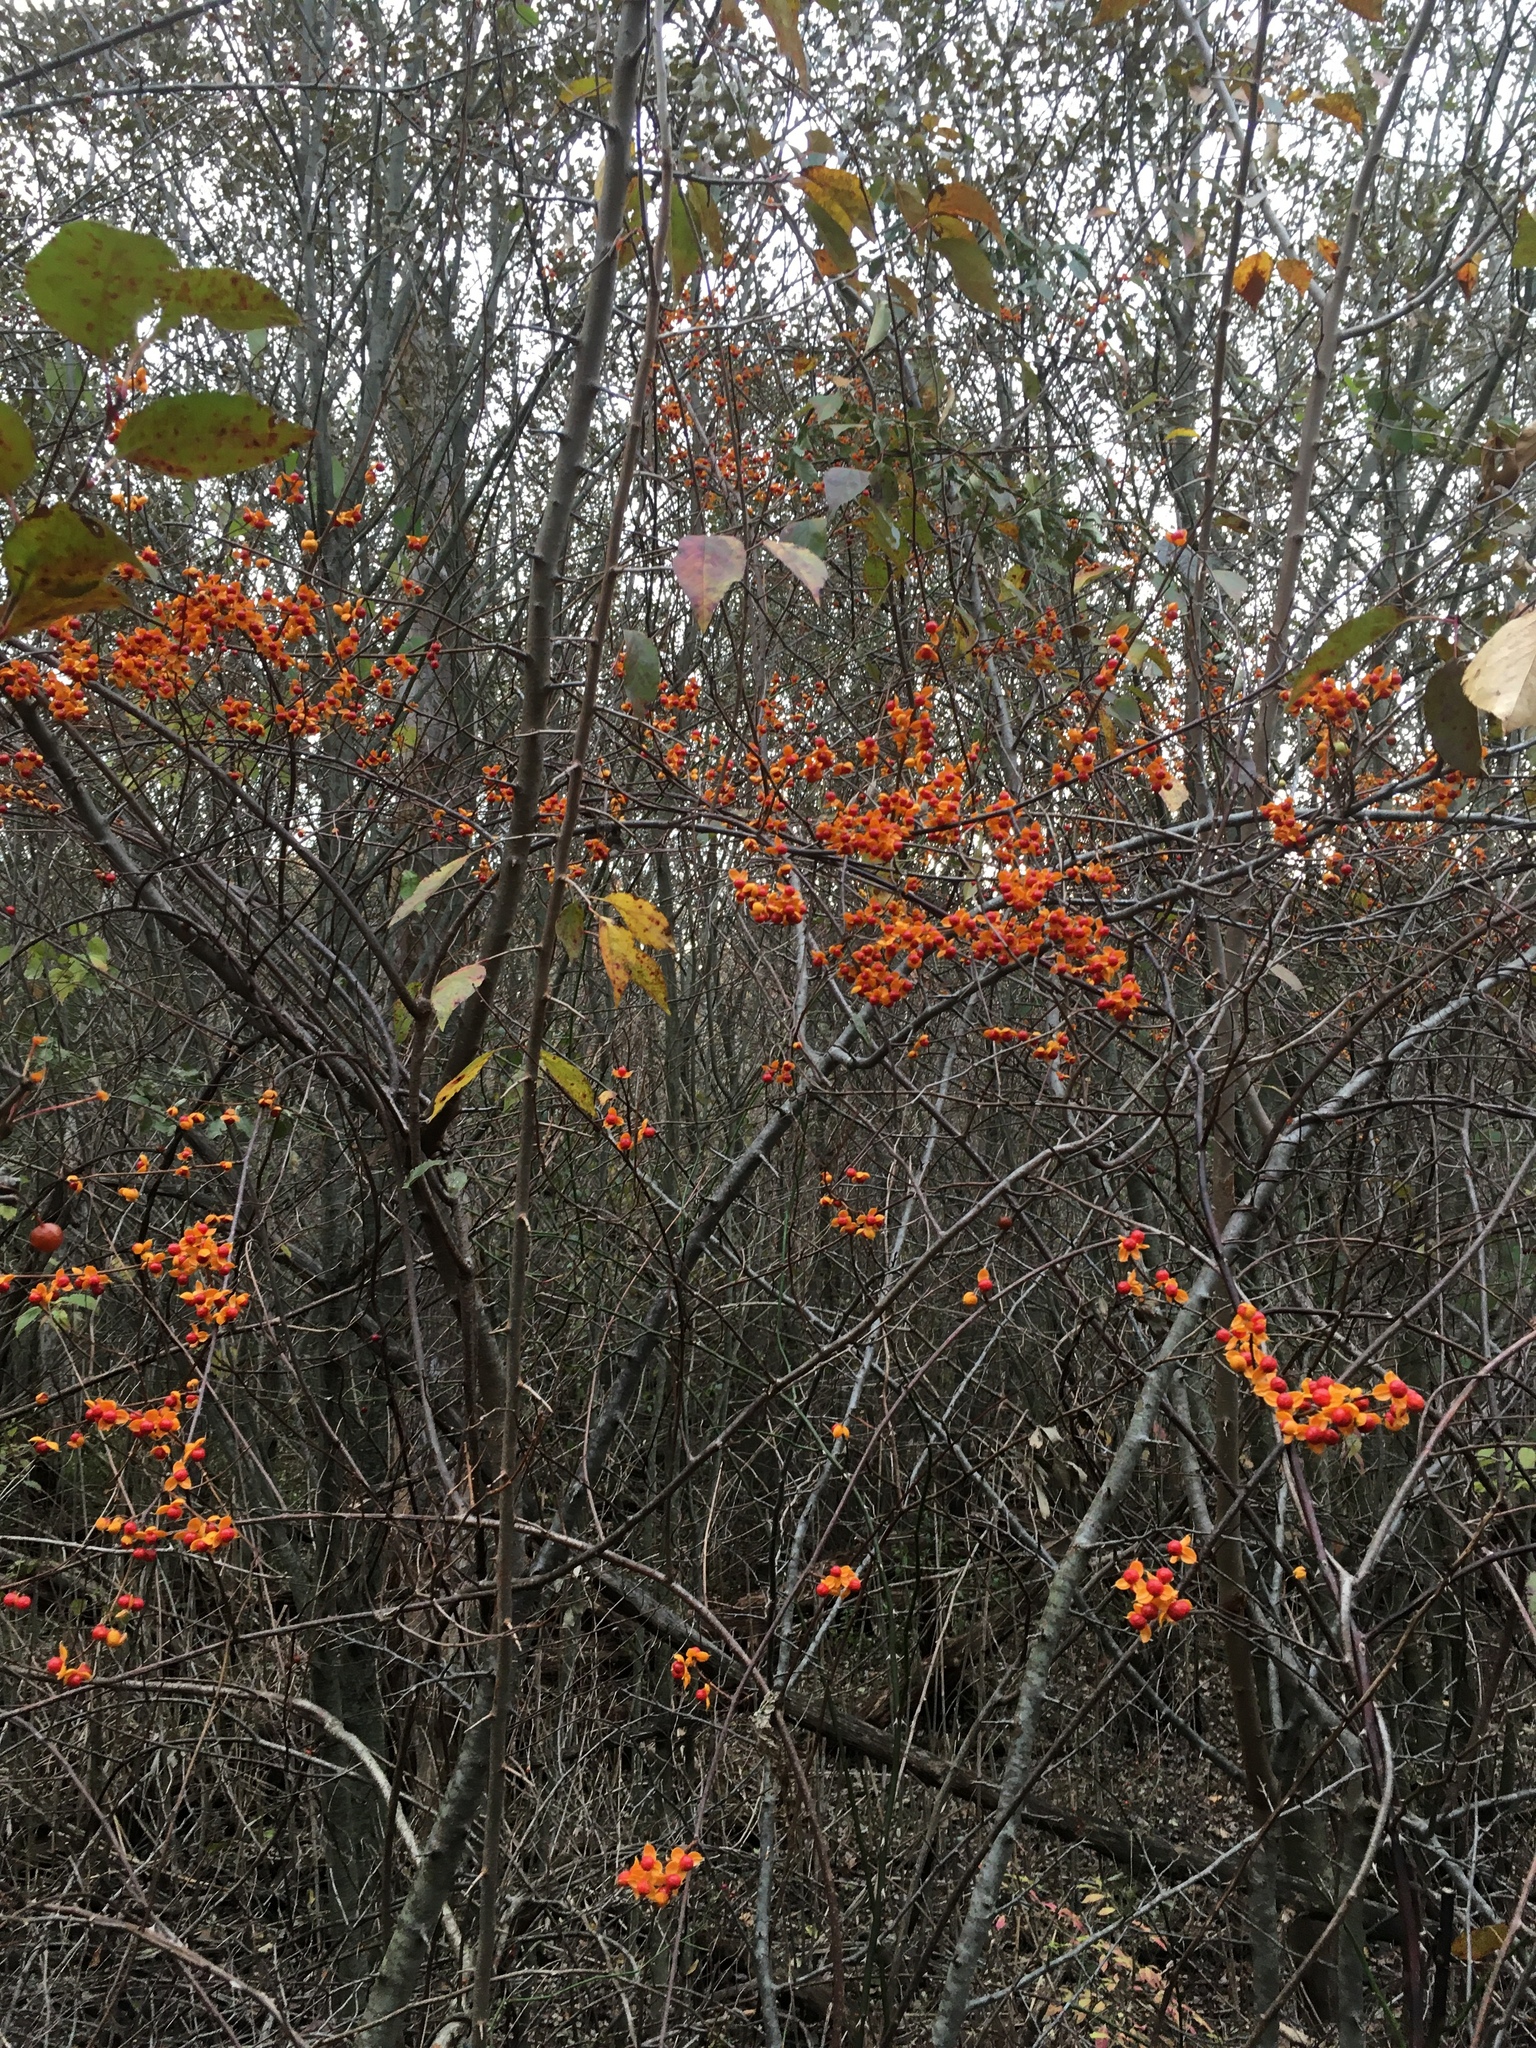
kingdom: Plantae
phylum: Tracheophyta
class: Magnoliopsida
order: Celastrales
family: Celastraceae
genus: Celastrus
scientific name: Celastrus orbiculatus
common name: Oriental bittersweet
